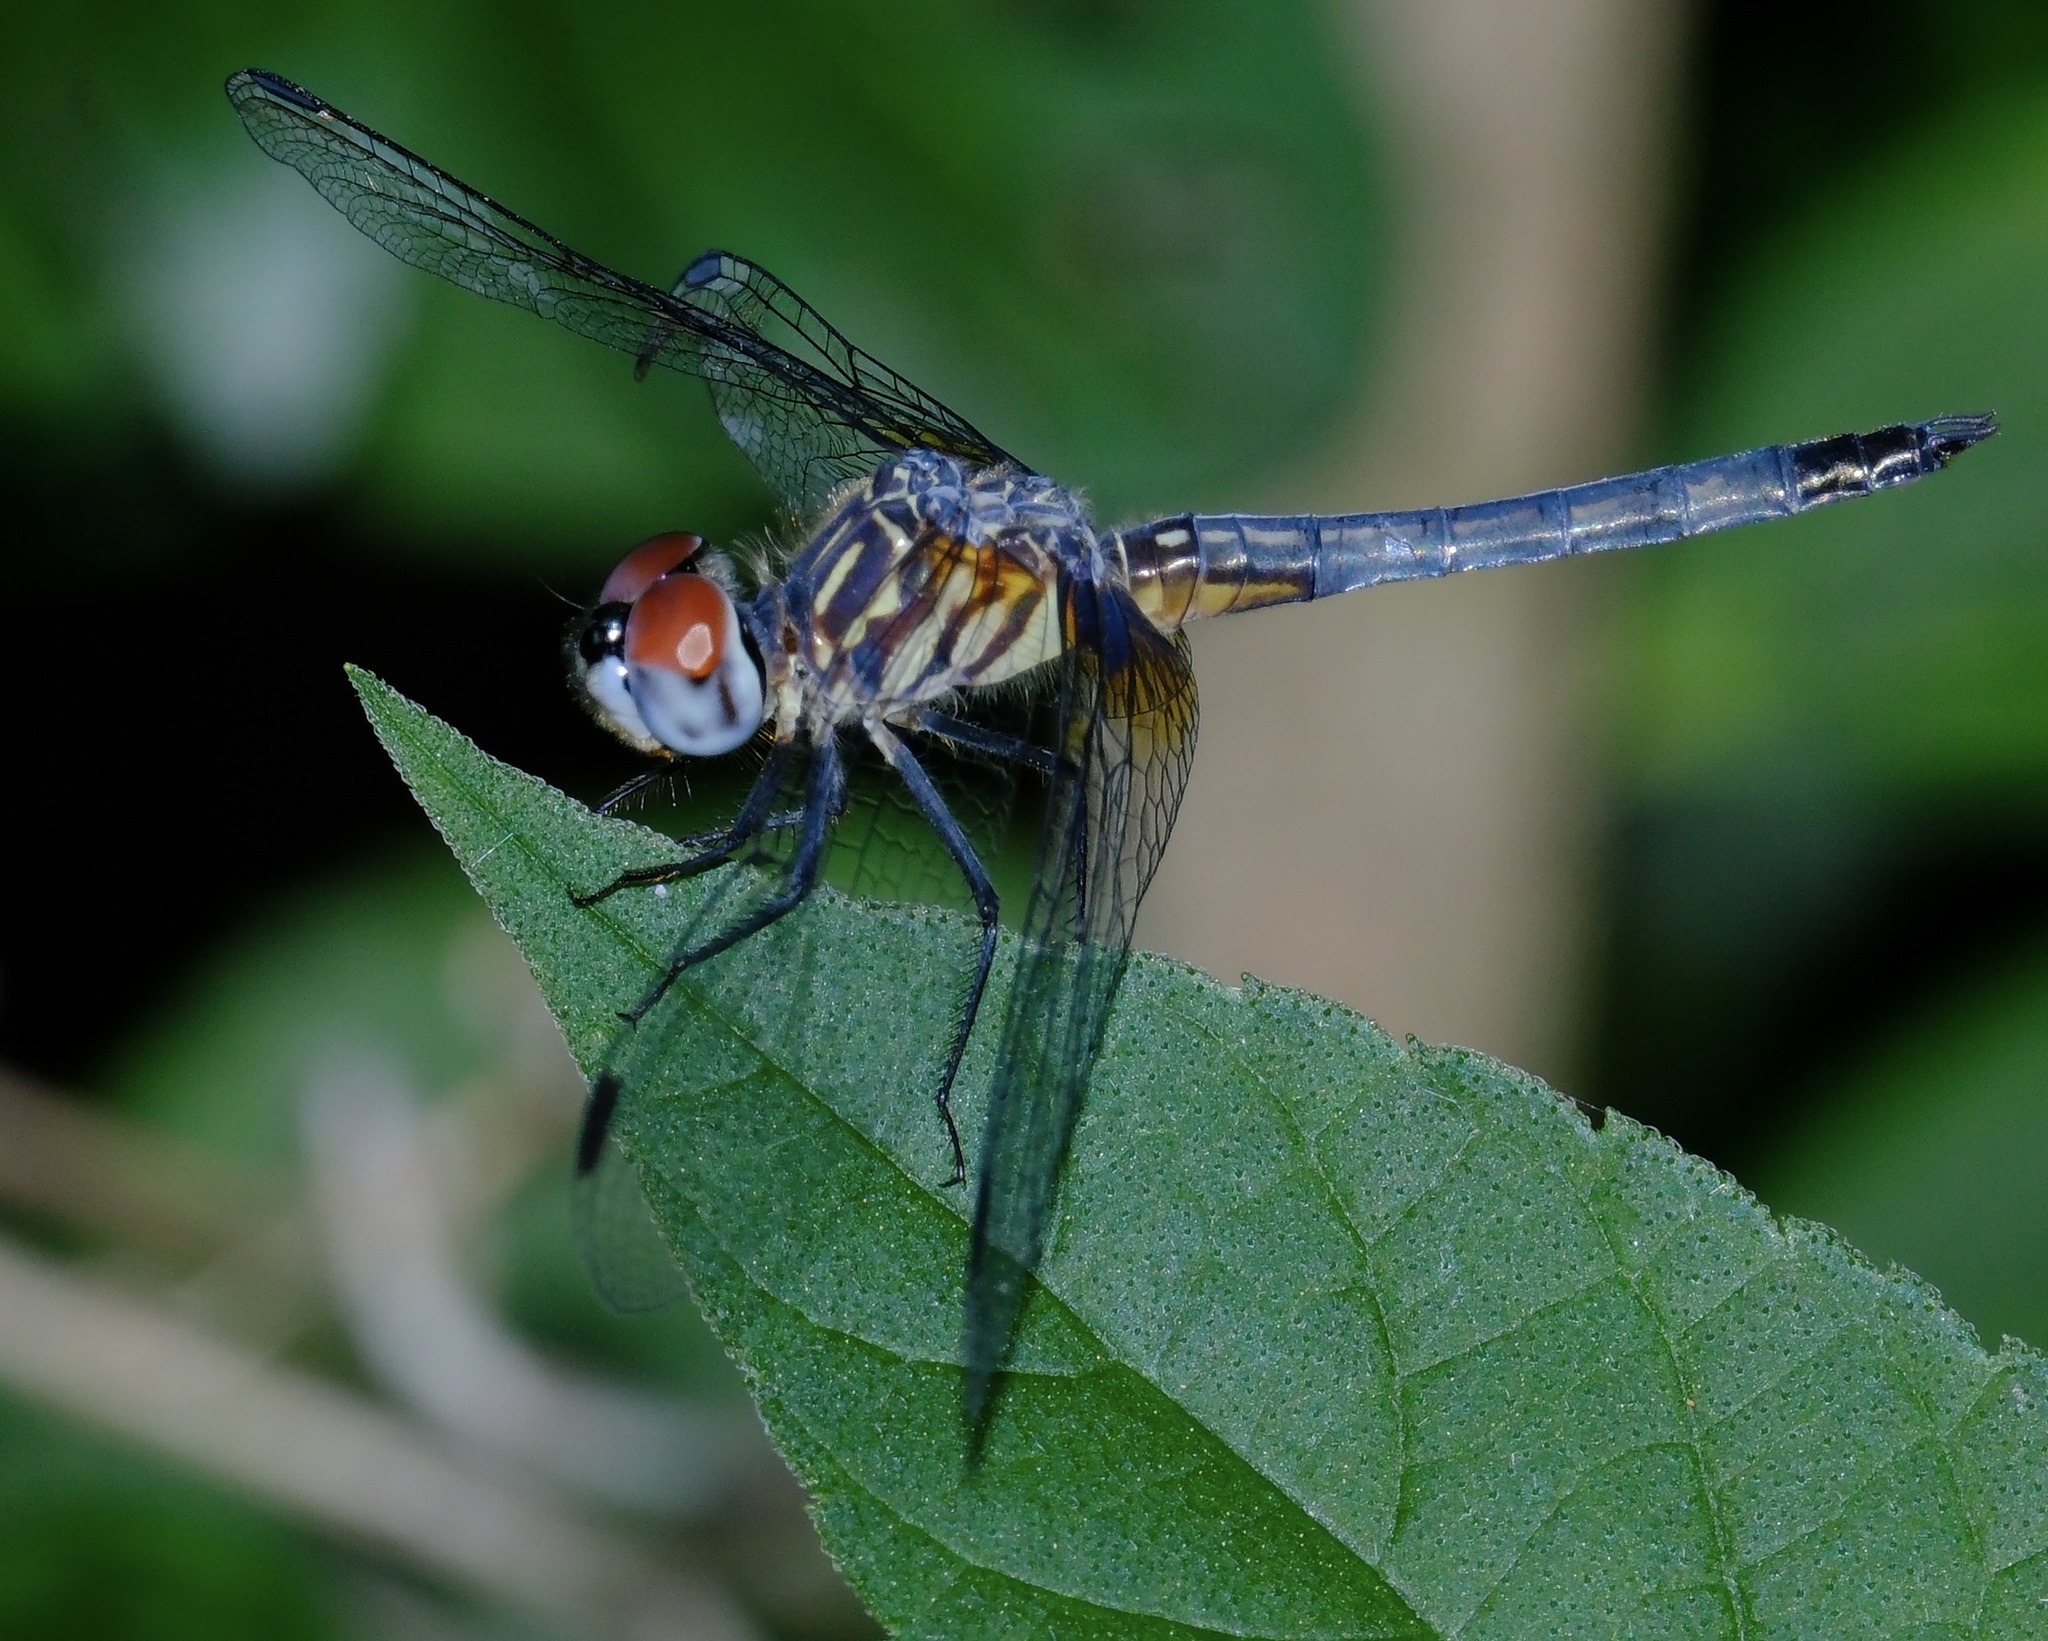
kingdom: Animalia
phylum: Arthropoda
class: Insecta
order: Odonata
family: Libellulidae
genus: Pachydiplax
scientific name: Pachydiplax longipennis
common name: Blue dasher
